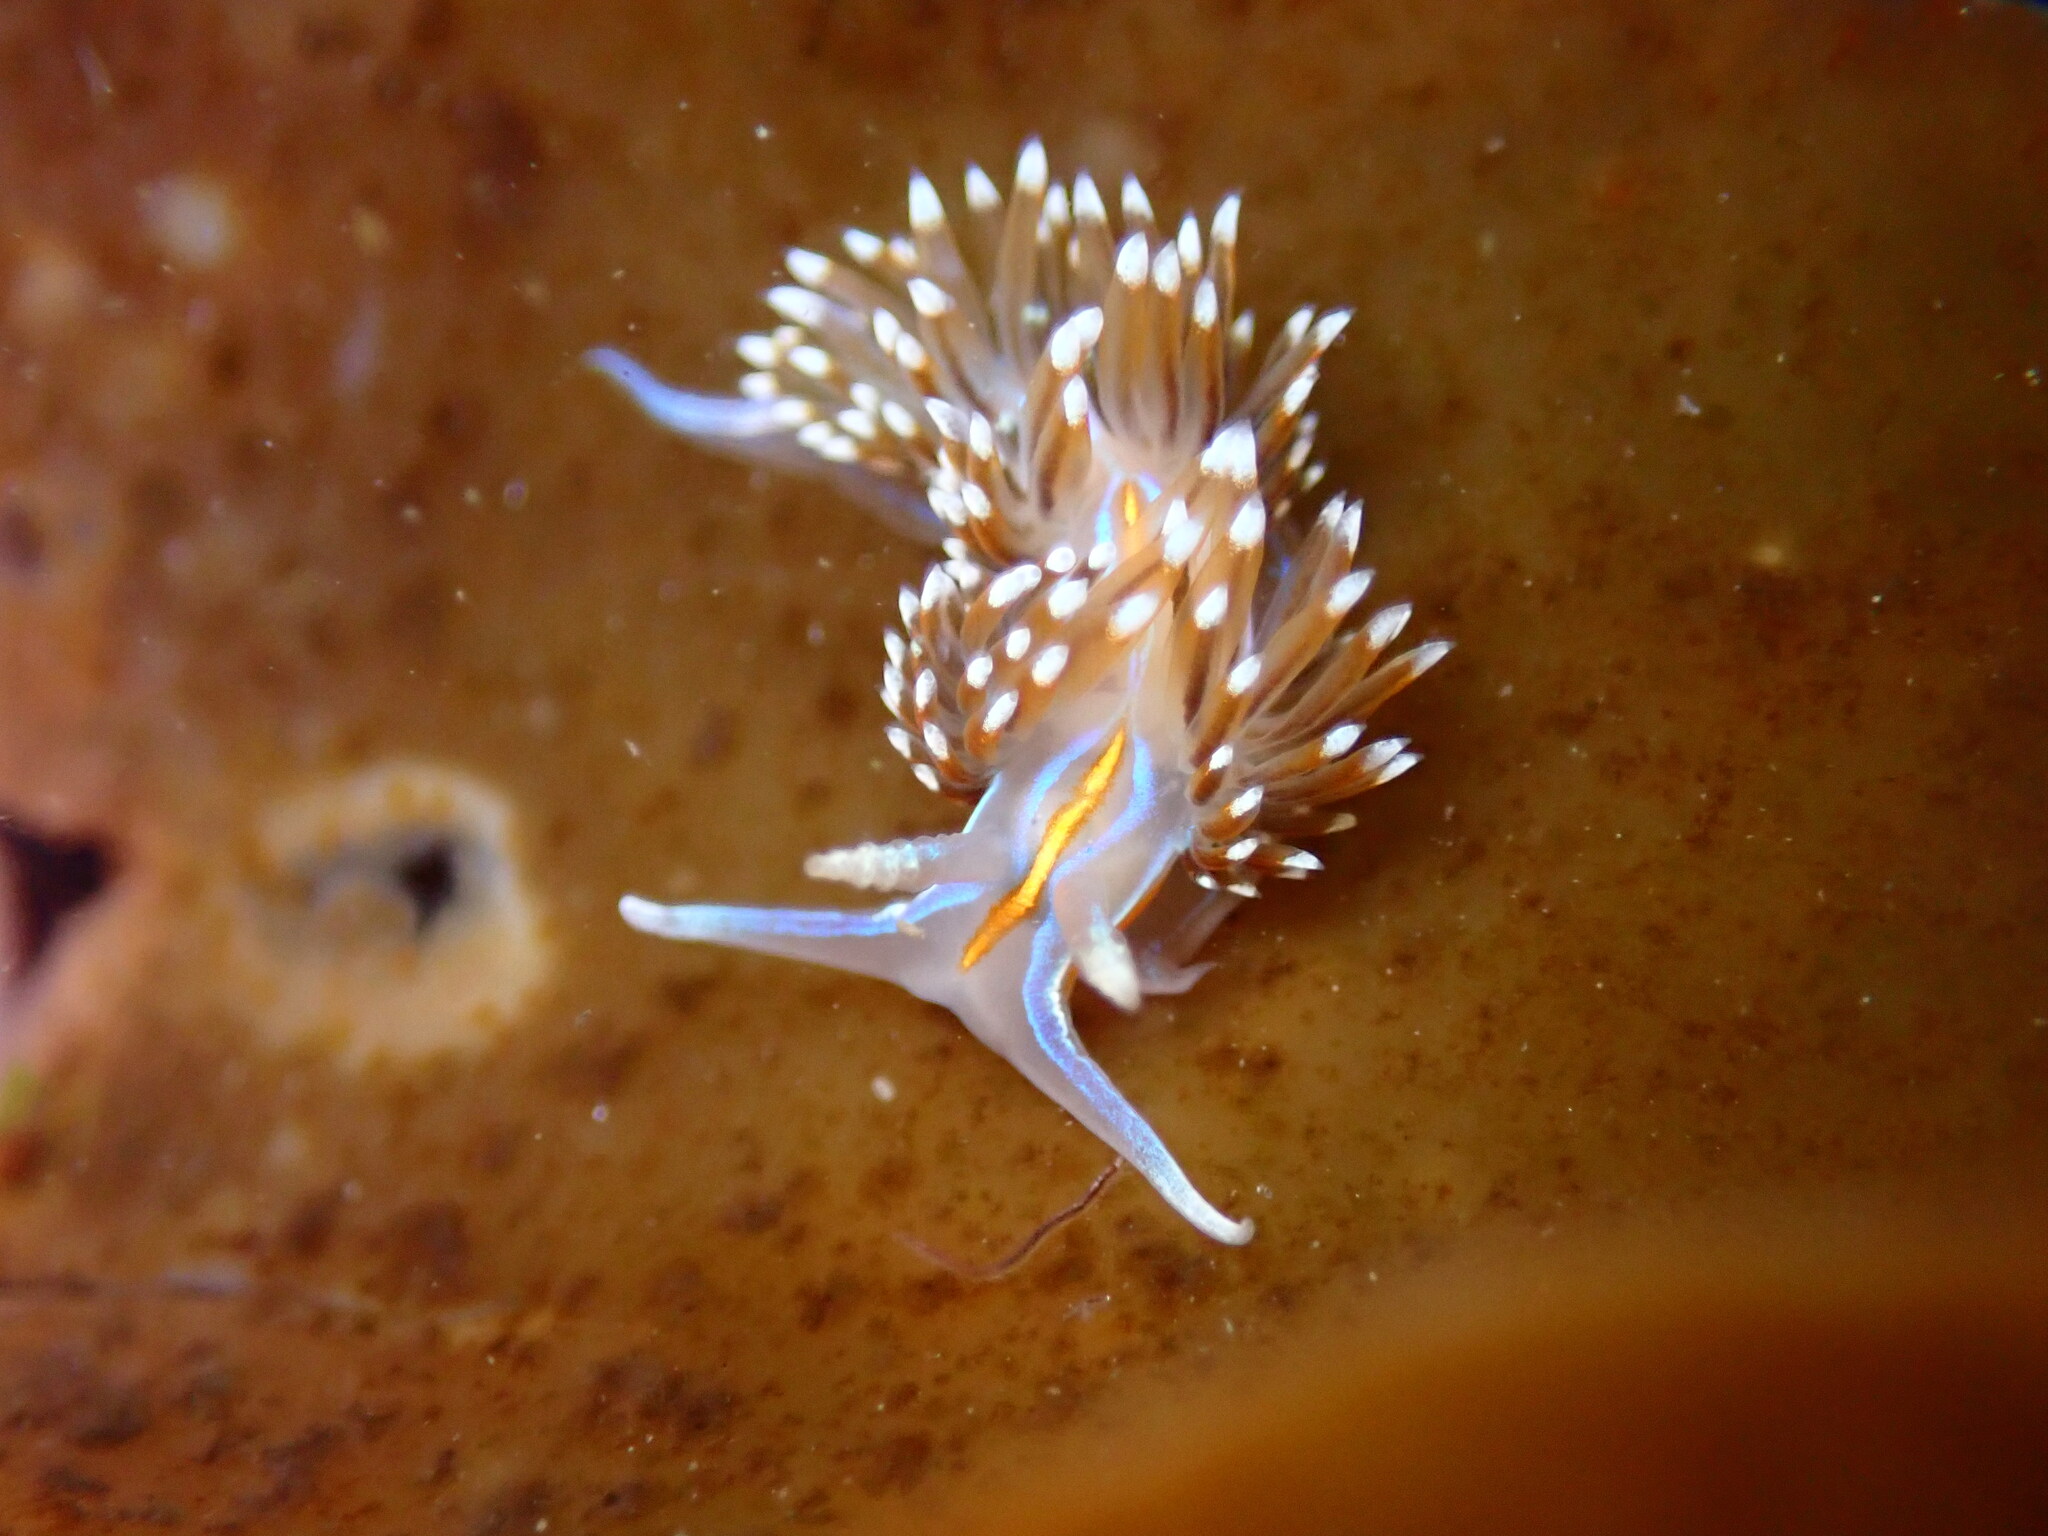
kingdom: Animalia
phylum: Mollusca
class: Gastropoda
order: Nudibranchia
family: Myrrhinidae
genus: Hermissenda
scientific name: Hermissenda opalescens
